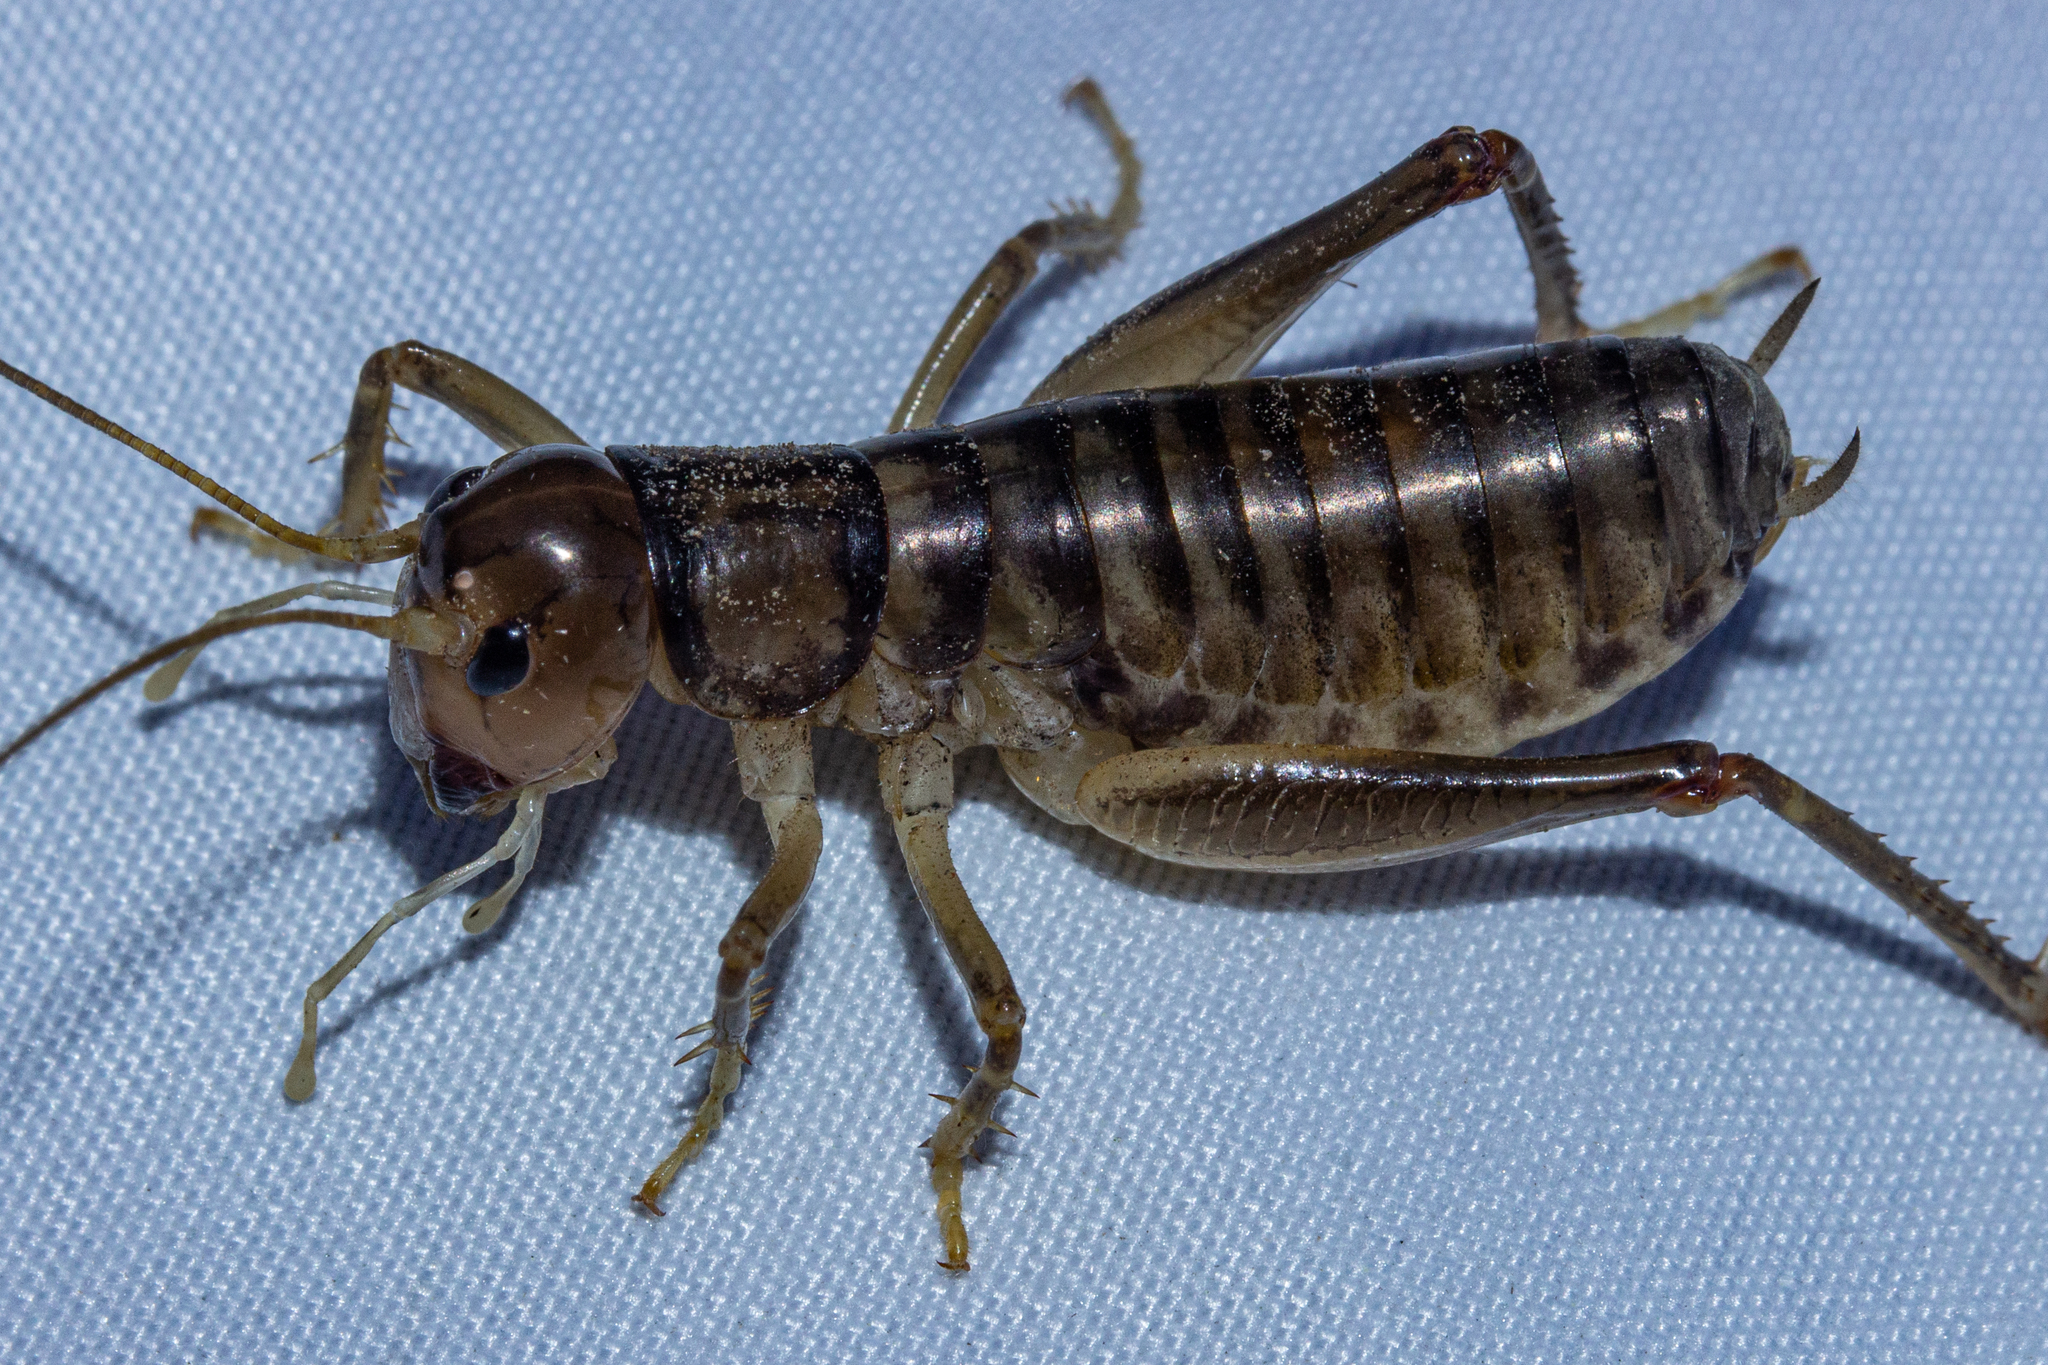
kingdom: Animalia
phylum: Arthropoda
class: Insecta
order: Orthoptera
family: Anostostomatidae
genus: Hemiandrus
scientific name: Hemiandrus celaeno
